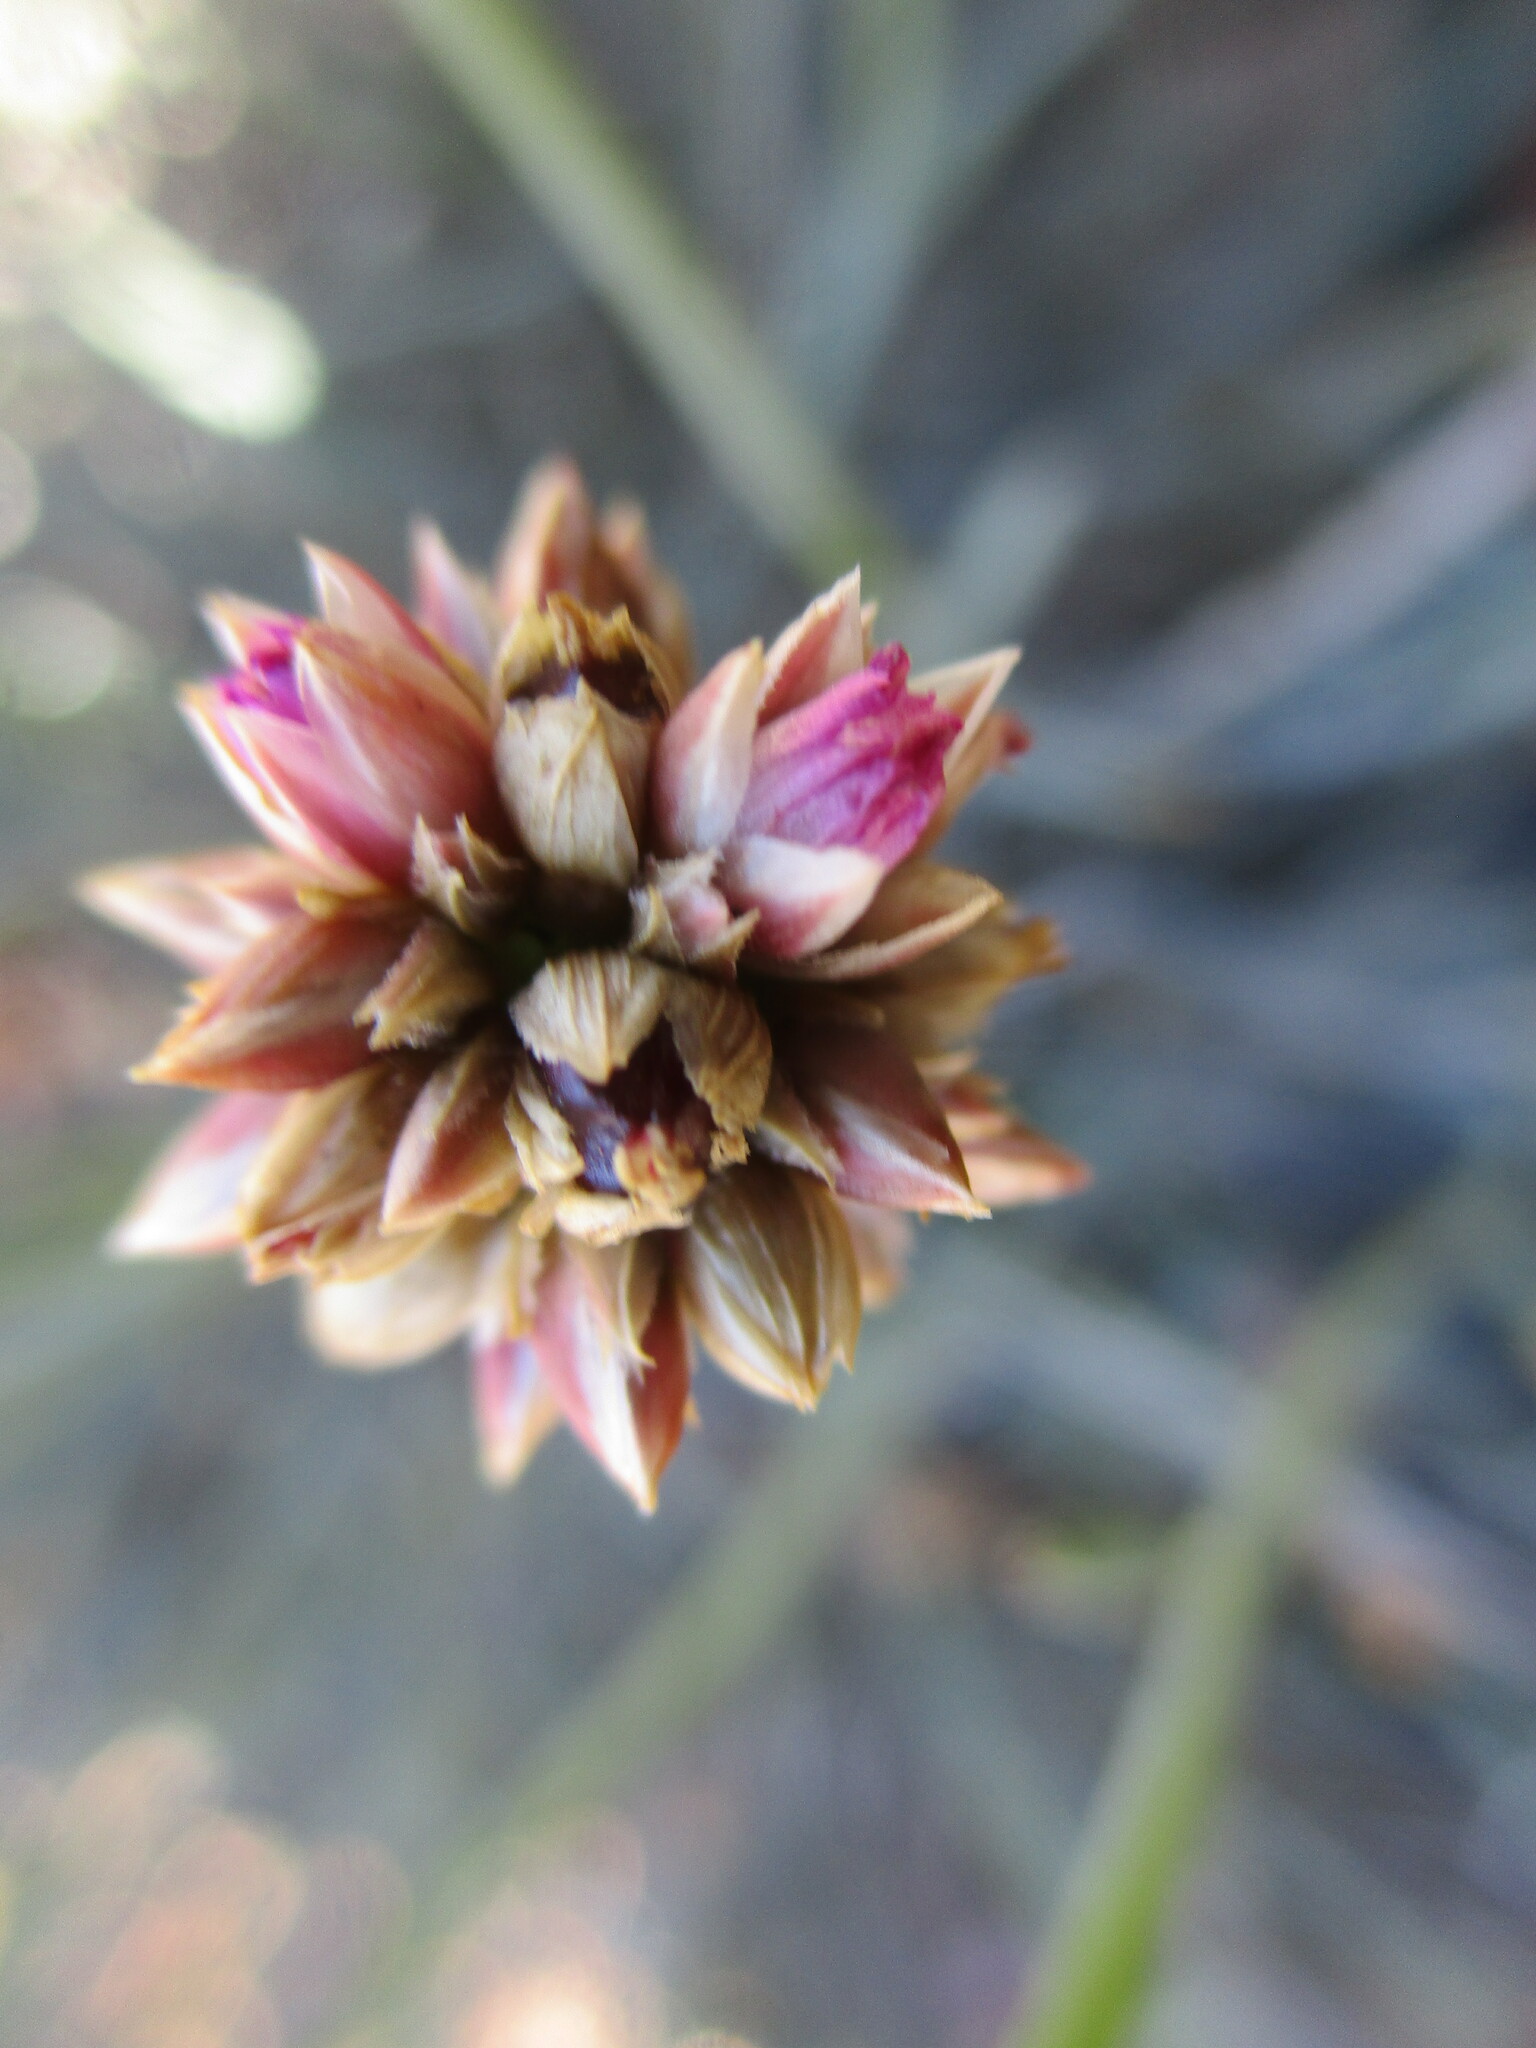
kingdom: Plantae
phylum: Tracheophyta
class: Magnoliopsida
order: Caryophyllales
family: Amaranthaceae
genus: Hermbstaedtia
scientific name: Hermbstaedtia glauca
